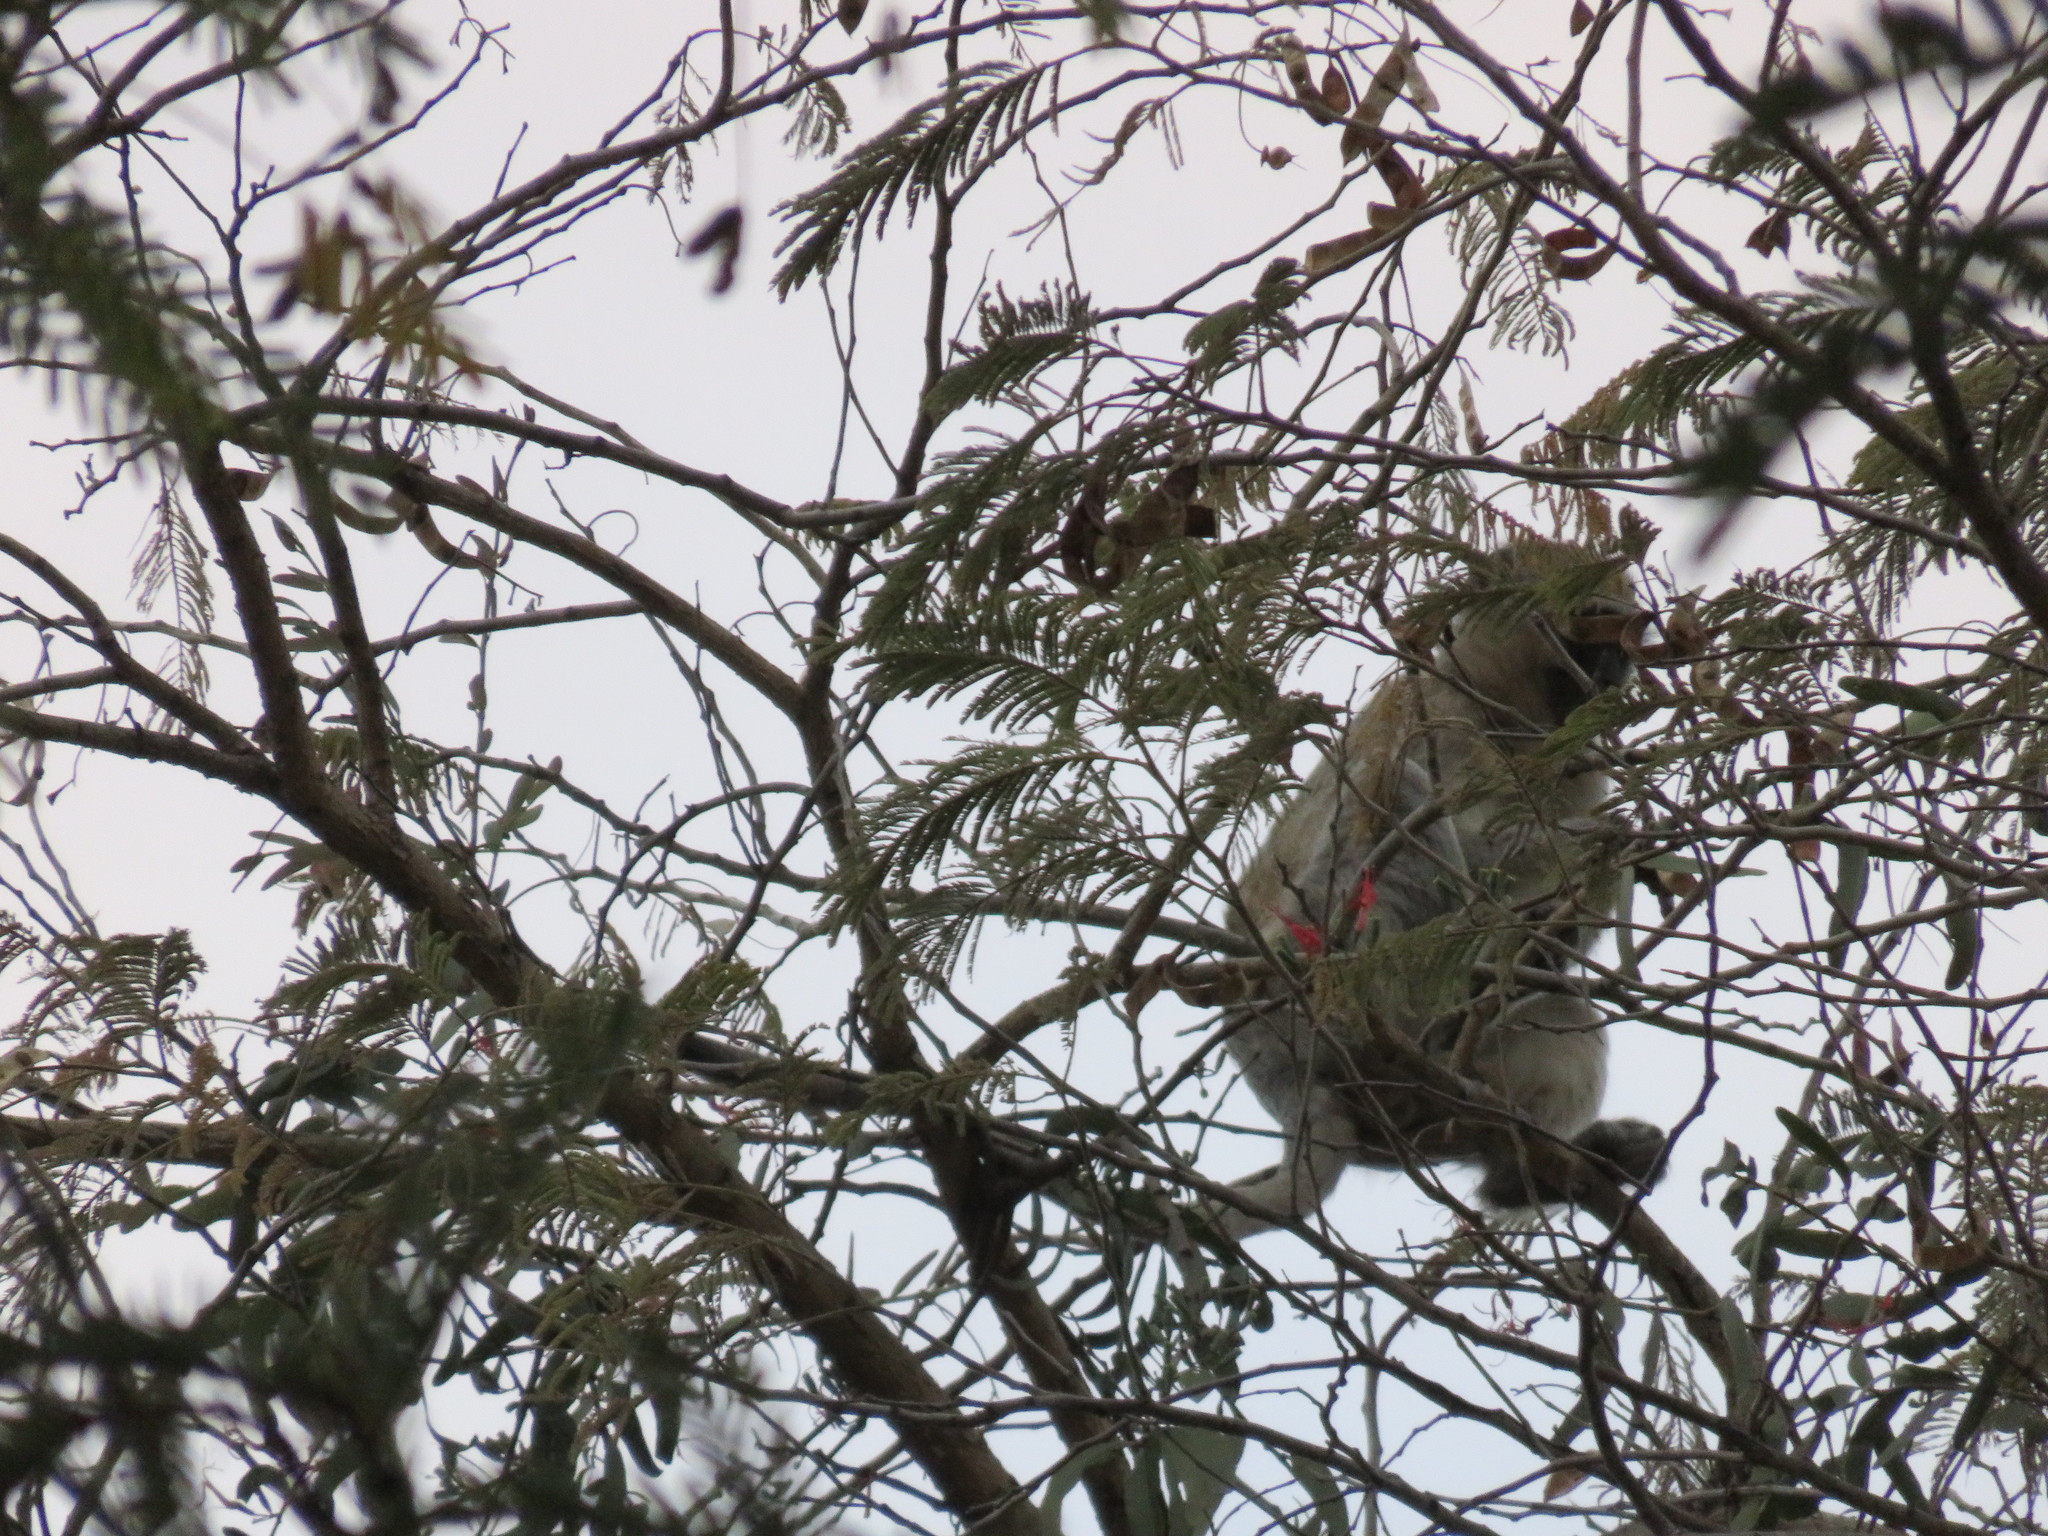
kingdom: Animalia
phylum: Chordata
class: Mammalia
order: Primates
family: Cercopithecidae
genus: Chlorocebus
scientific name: Chlorocebus pygerythrus
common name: Vervet monkey
